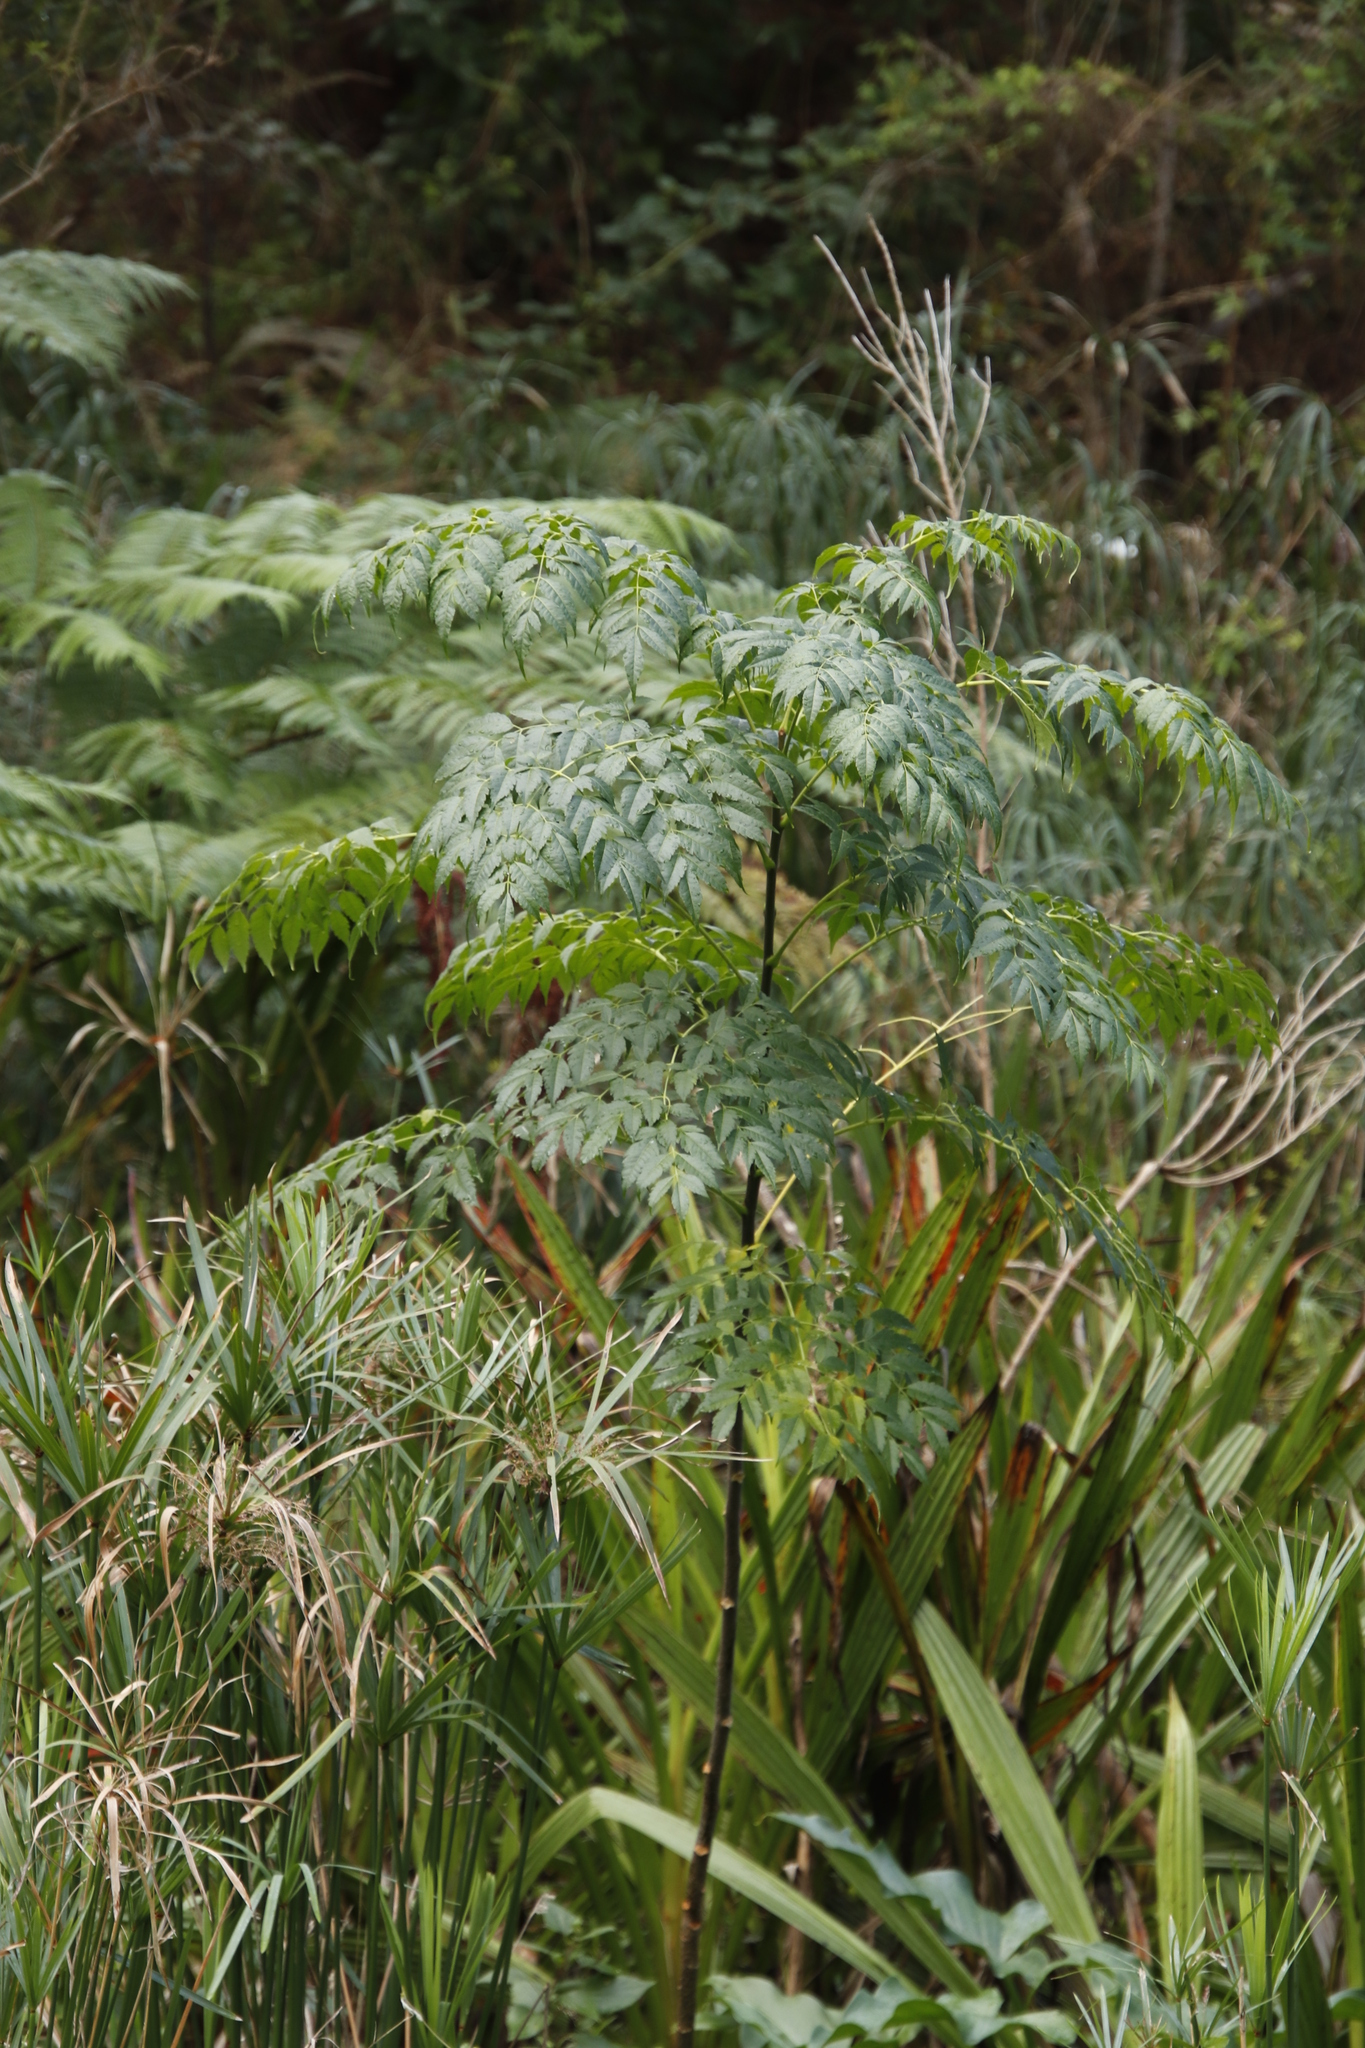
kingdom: Plantae
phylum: Tracheophyta
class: Magnoliopsida
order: Sapindales
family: Meliaceae
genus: Melia
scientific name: Melia azedarach
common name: Chinaberrytree
